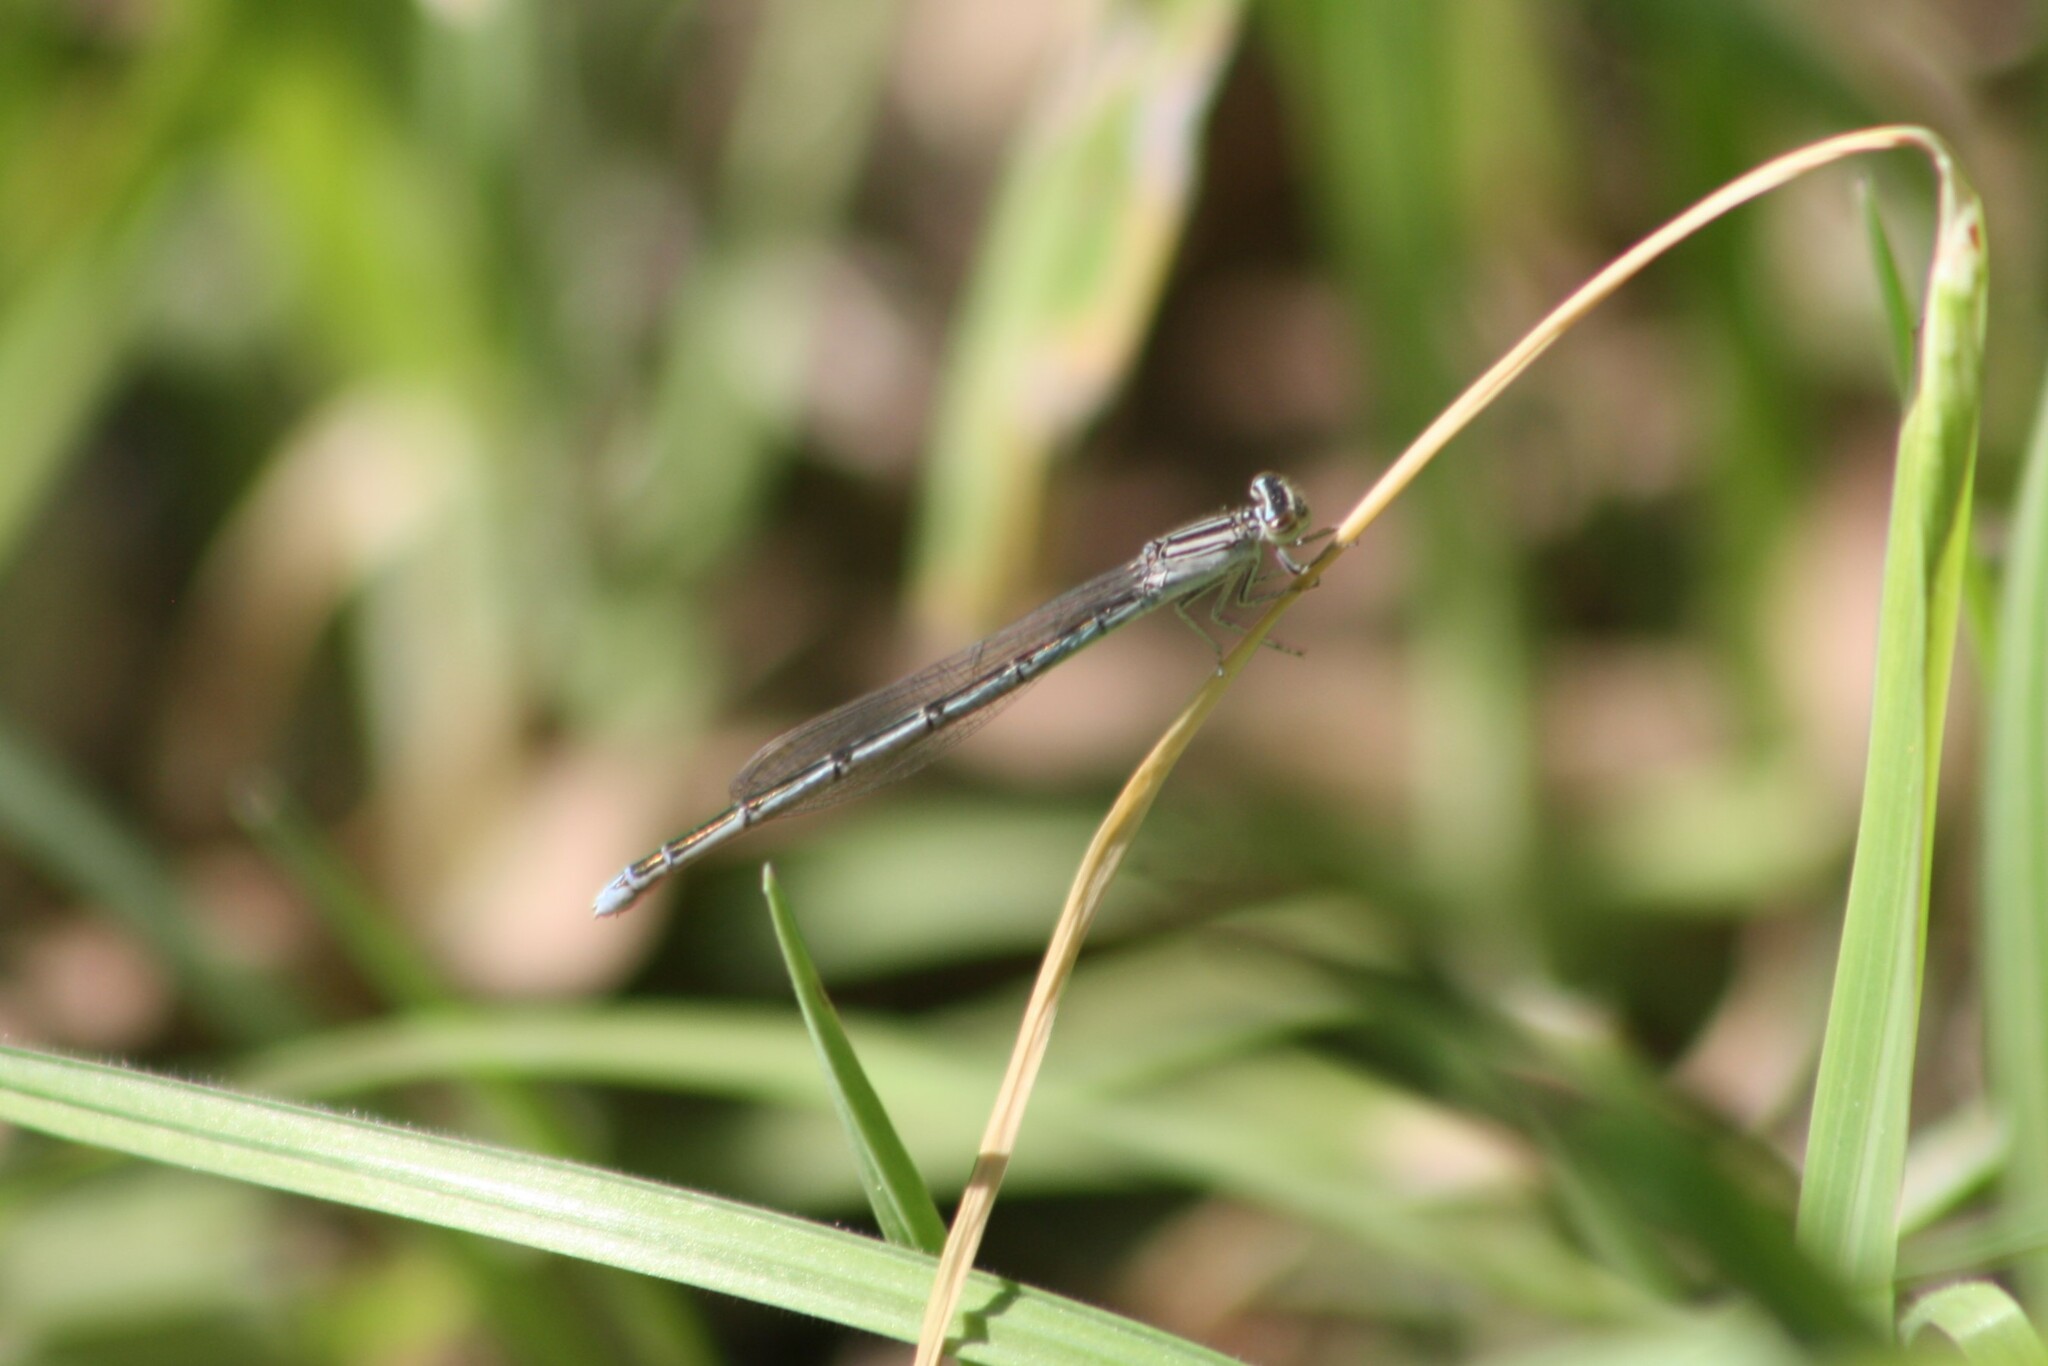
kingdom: Animalia
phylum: Arthropoda
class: Insecta
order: Odonata
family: Coenagrionidae
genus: Enallagma
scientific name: Enallagma basidens
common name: Double-striped bluet
